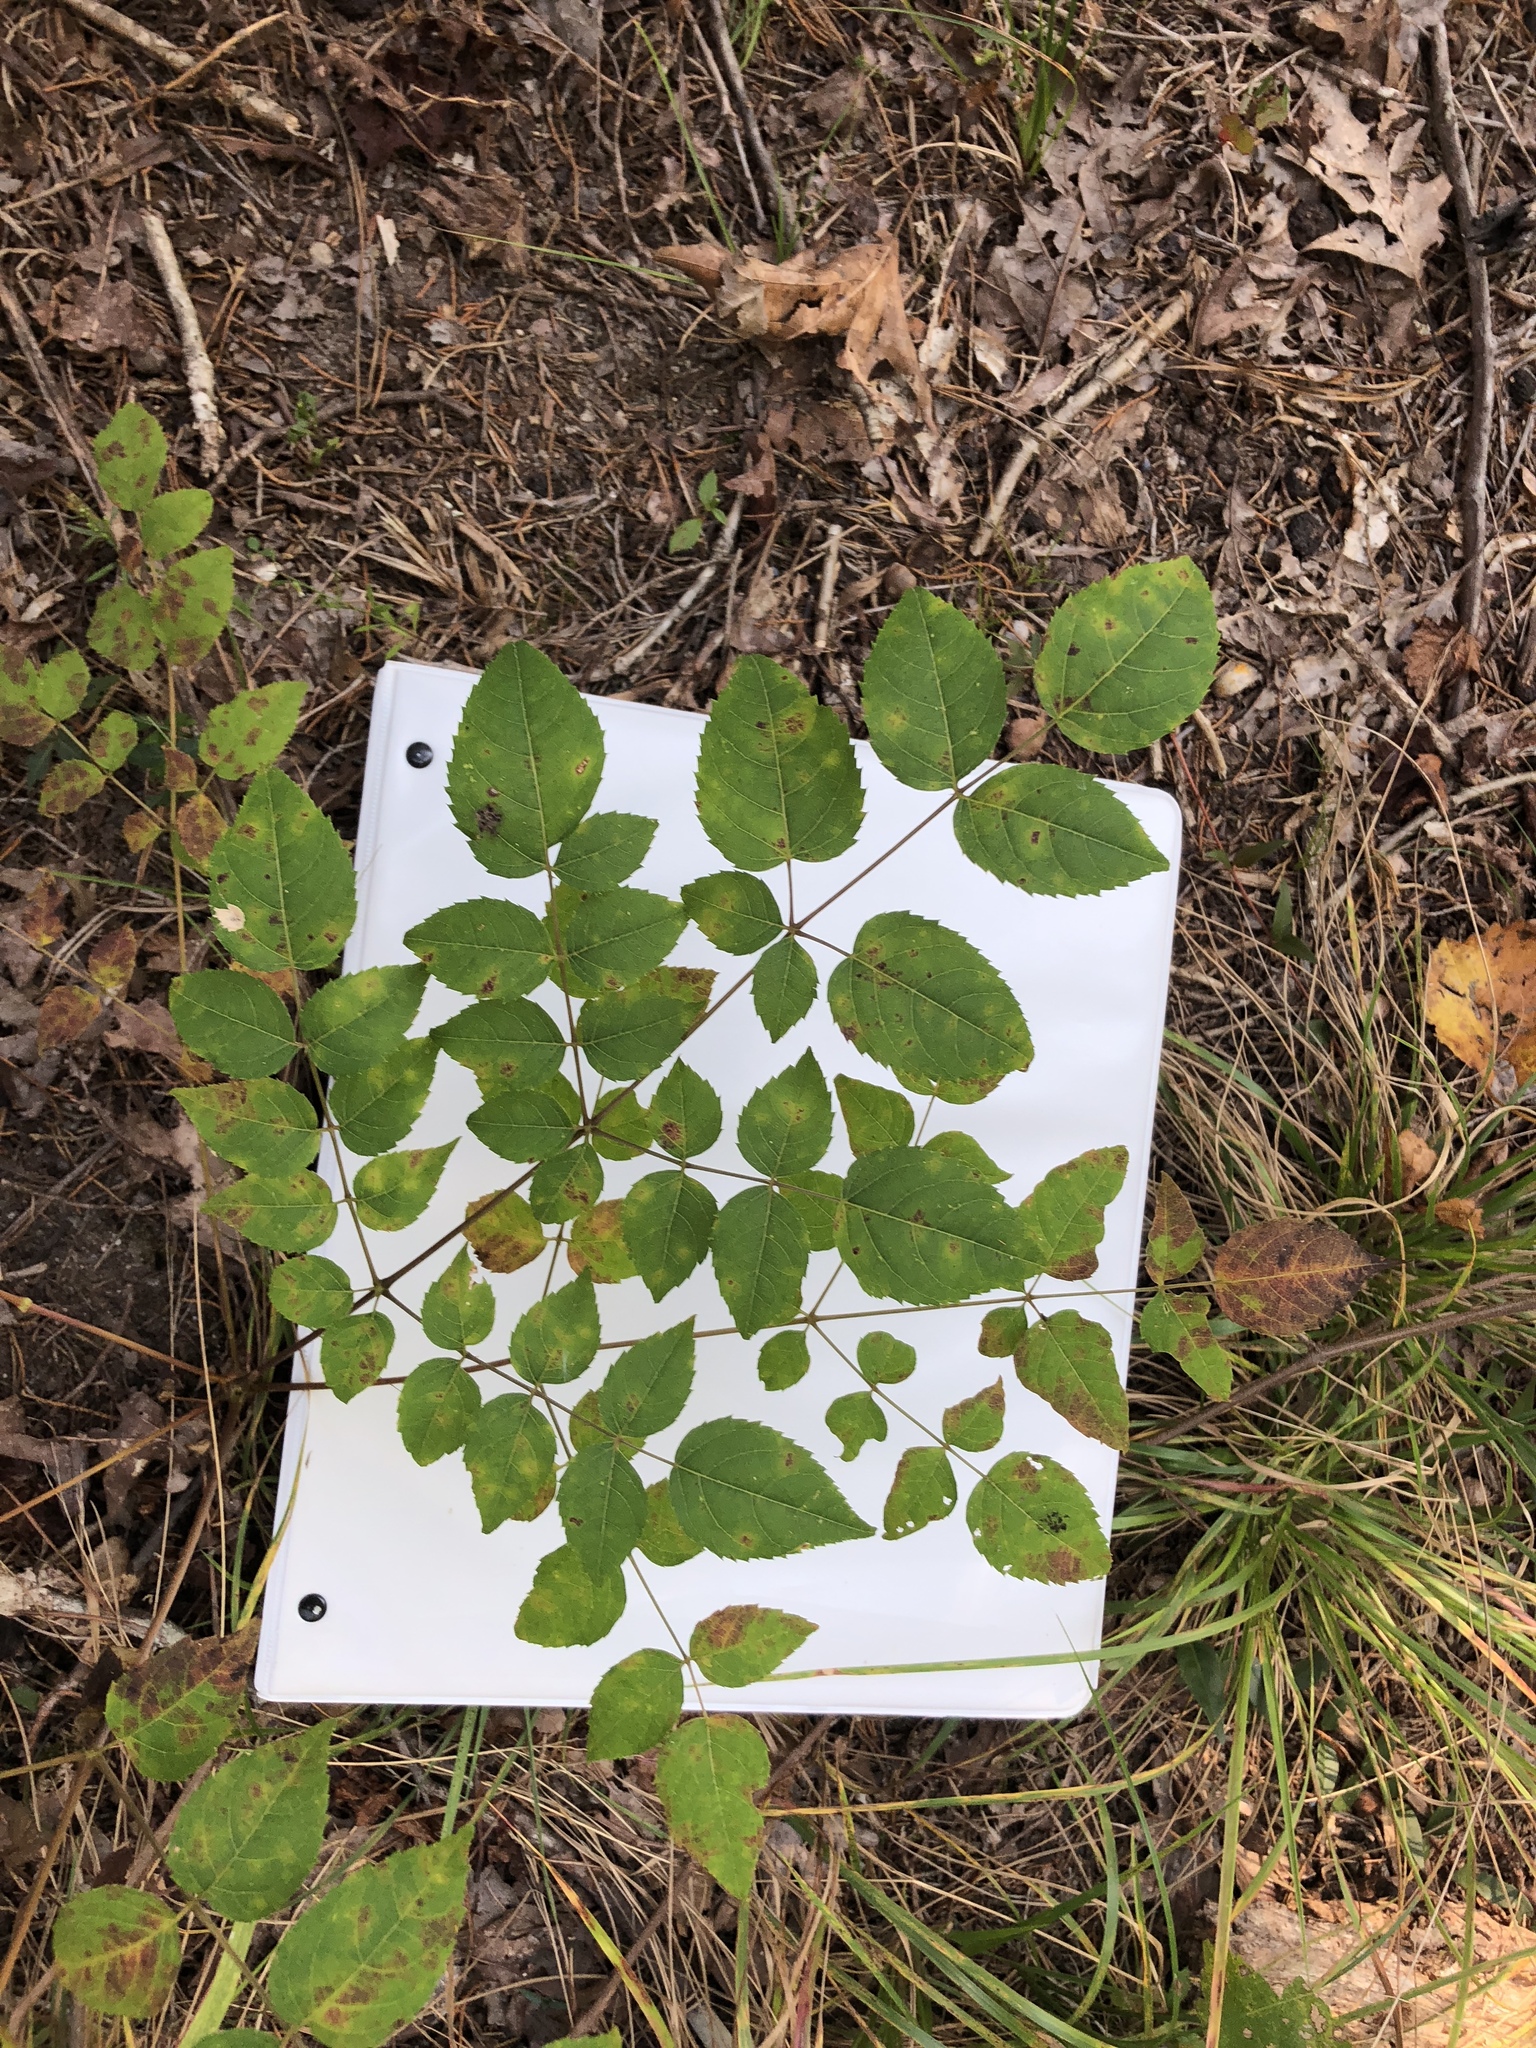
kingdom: Plantae
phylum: Tracheophyta
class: Magnoliopsida
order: Apiales
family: Araliaceae
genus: Aralia
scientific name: Aralia spinosa
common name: Hercules'-club
